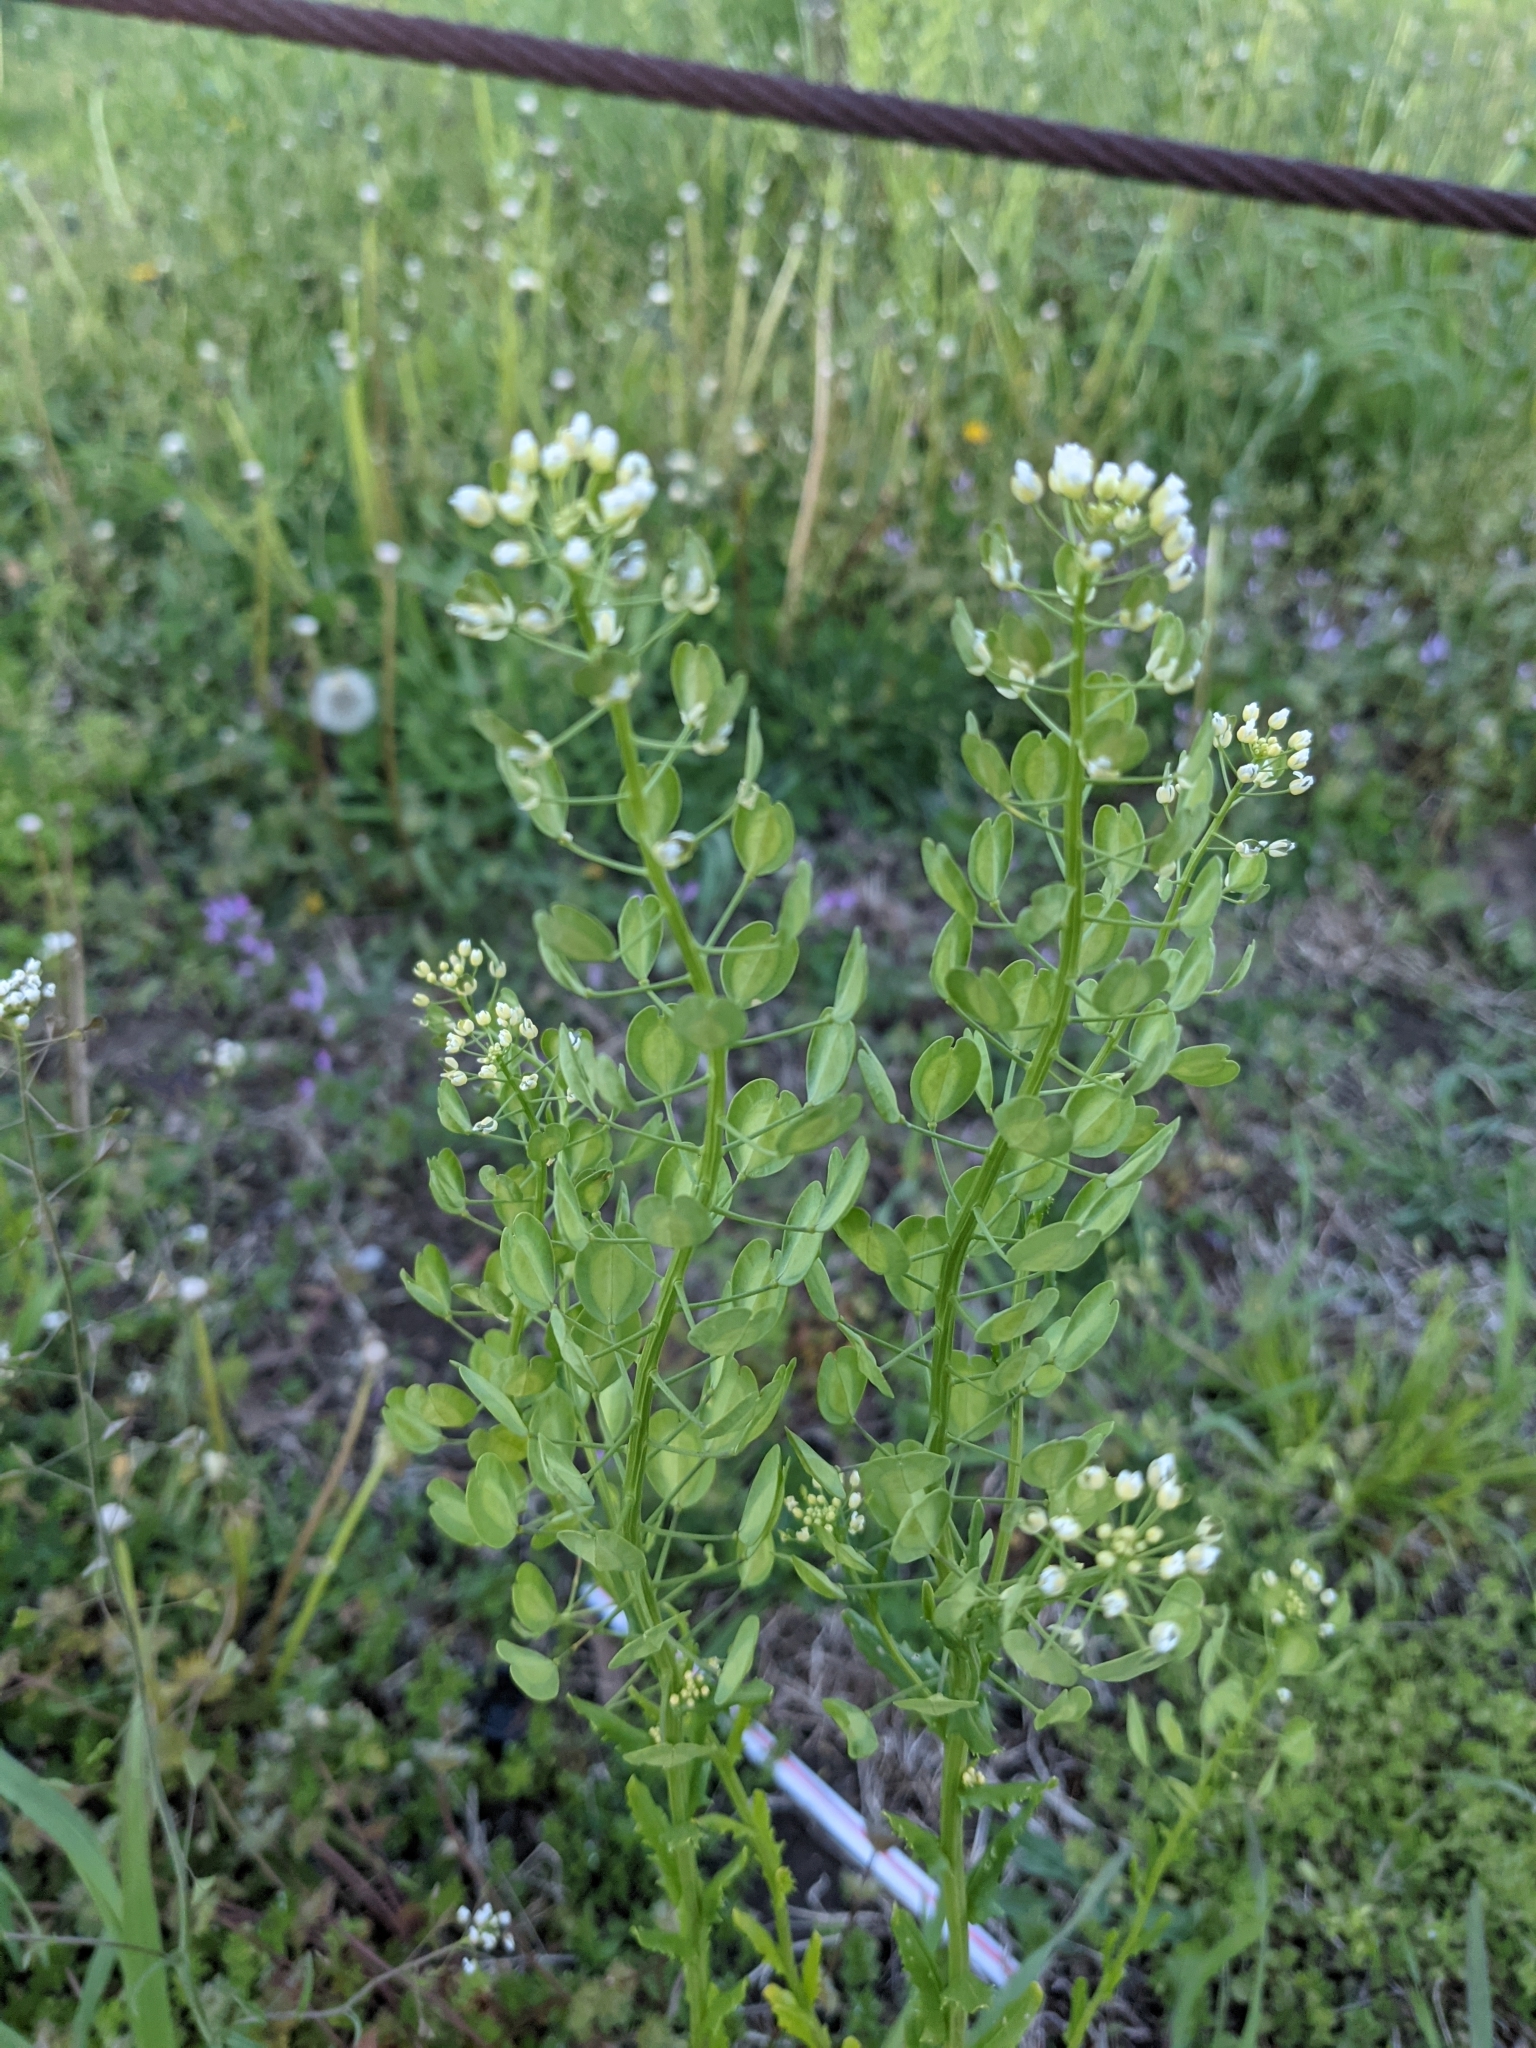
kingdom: Plantae
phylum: Tracheophyta
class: Magnoliopsida
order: Brassicales
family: Brassicaceae
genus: Thlaspi
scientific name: Thlaspi arvense
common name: Field pennycress
